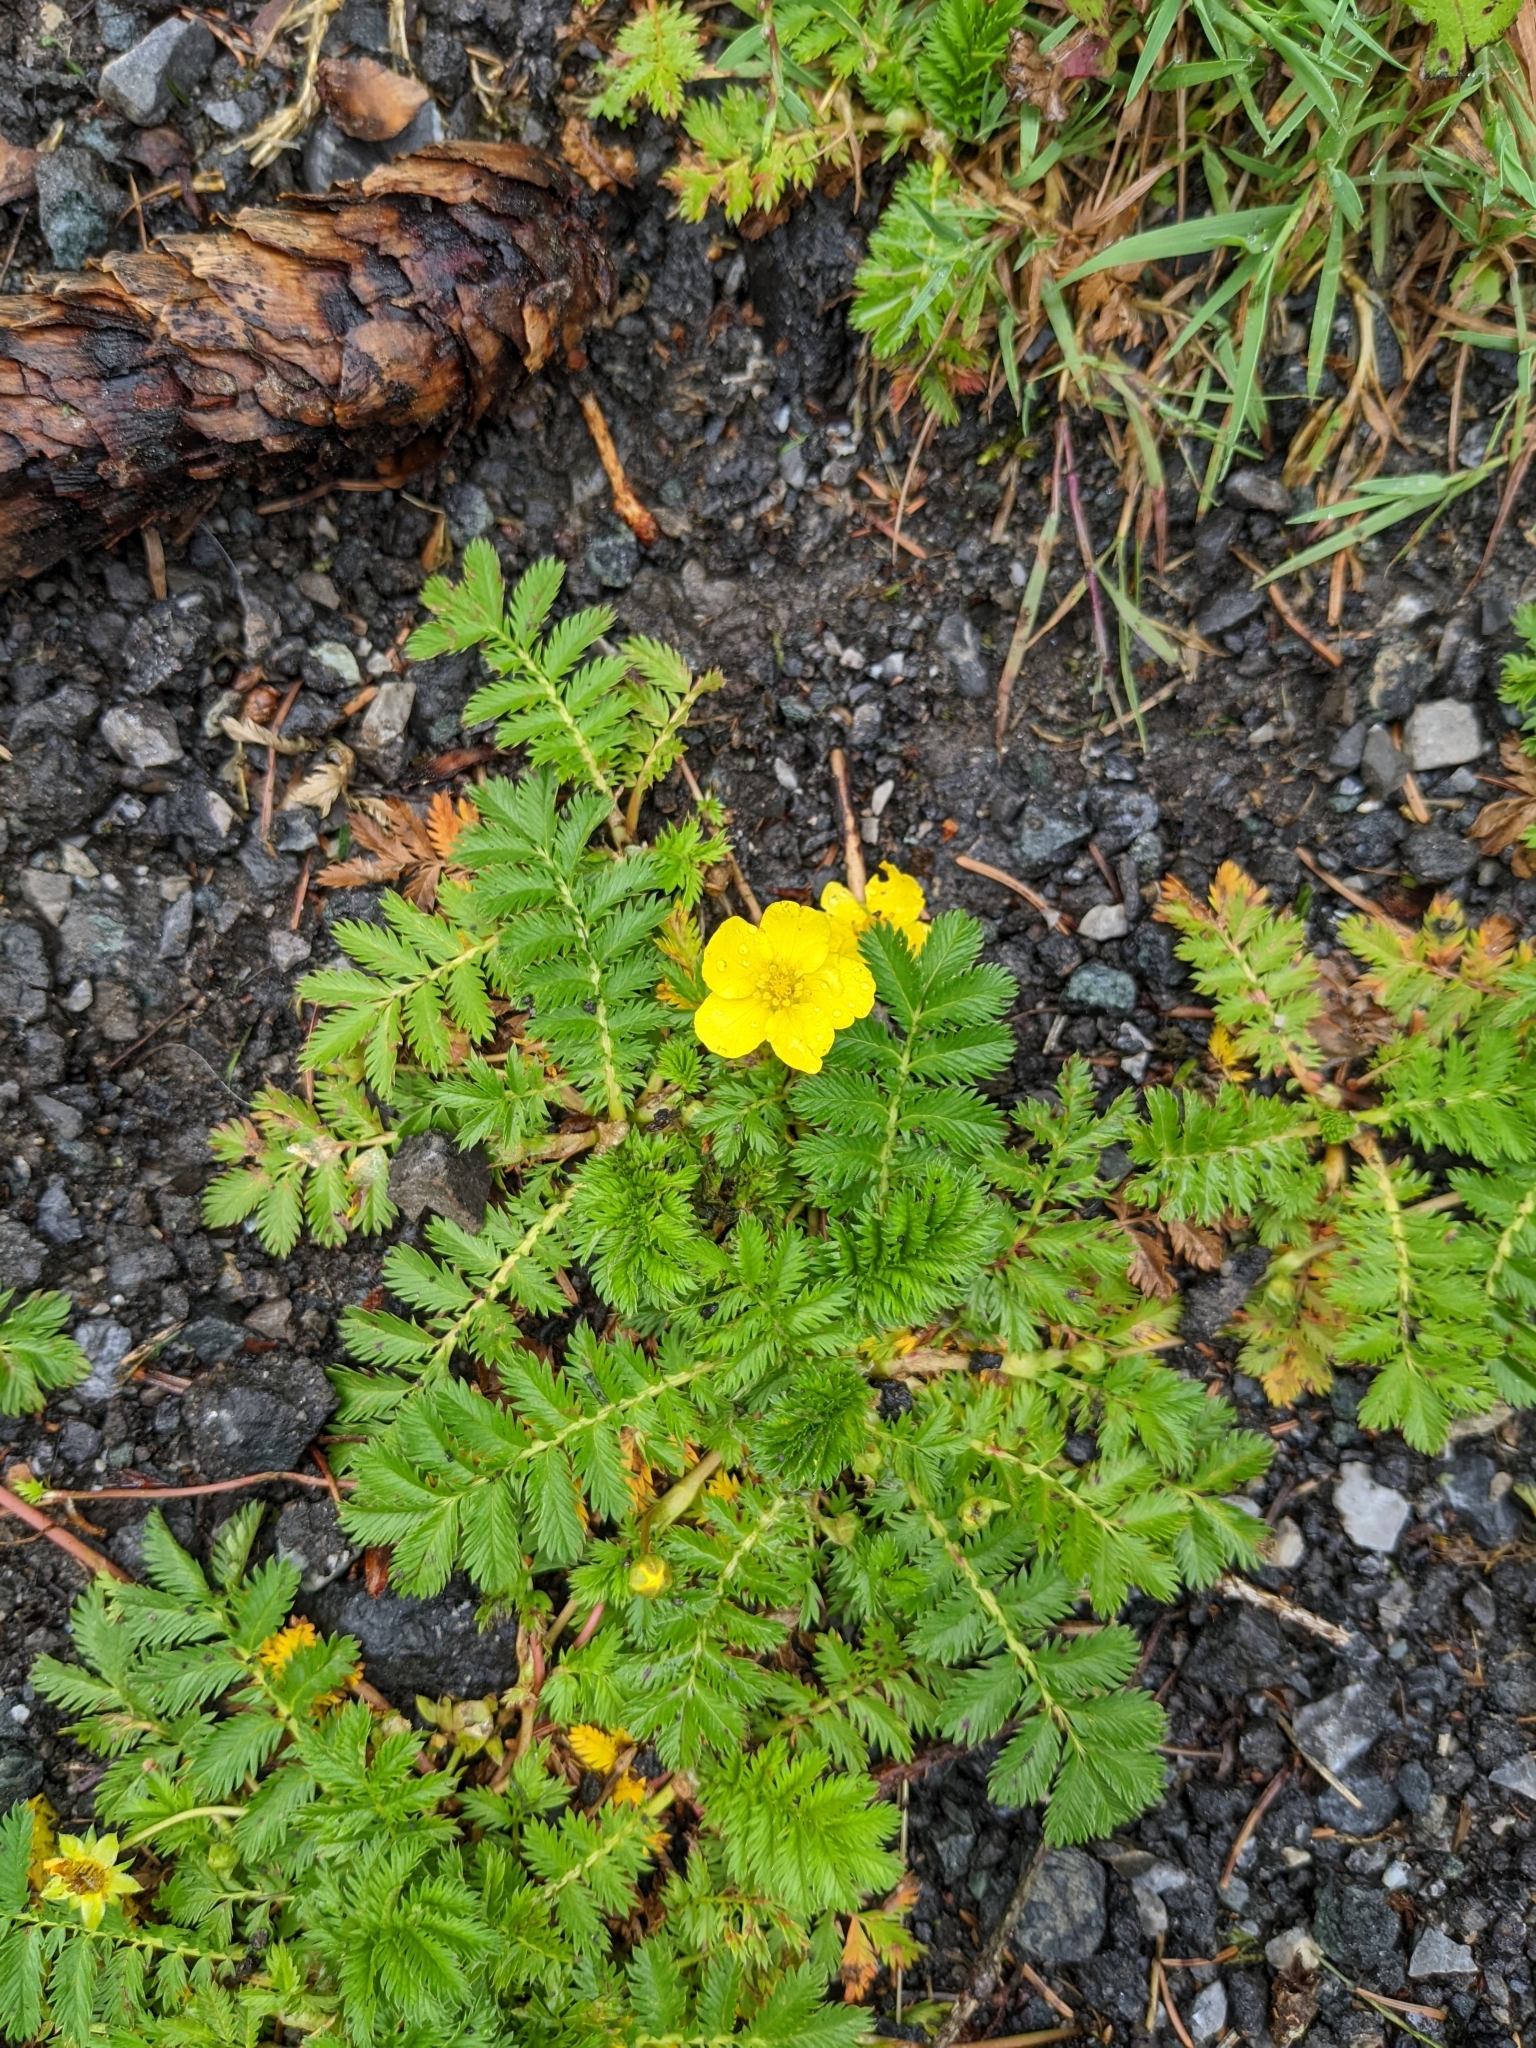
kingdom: Plantae
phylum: Tracheophyta
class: Magnoliopsida
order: Rosales
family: Rosaceae
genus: Argentina
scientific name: Argentina anserina
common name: Common silverweed
